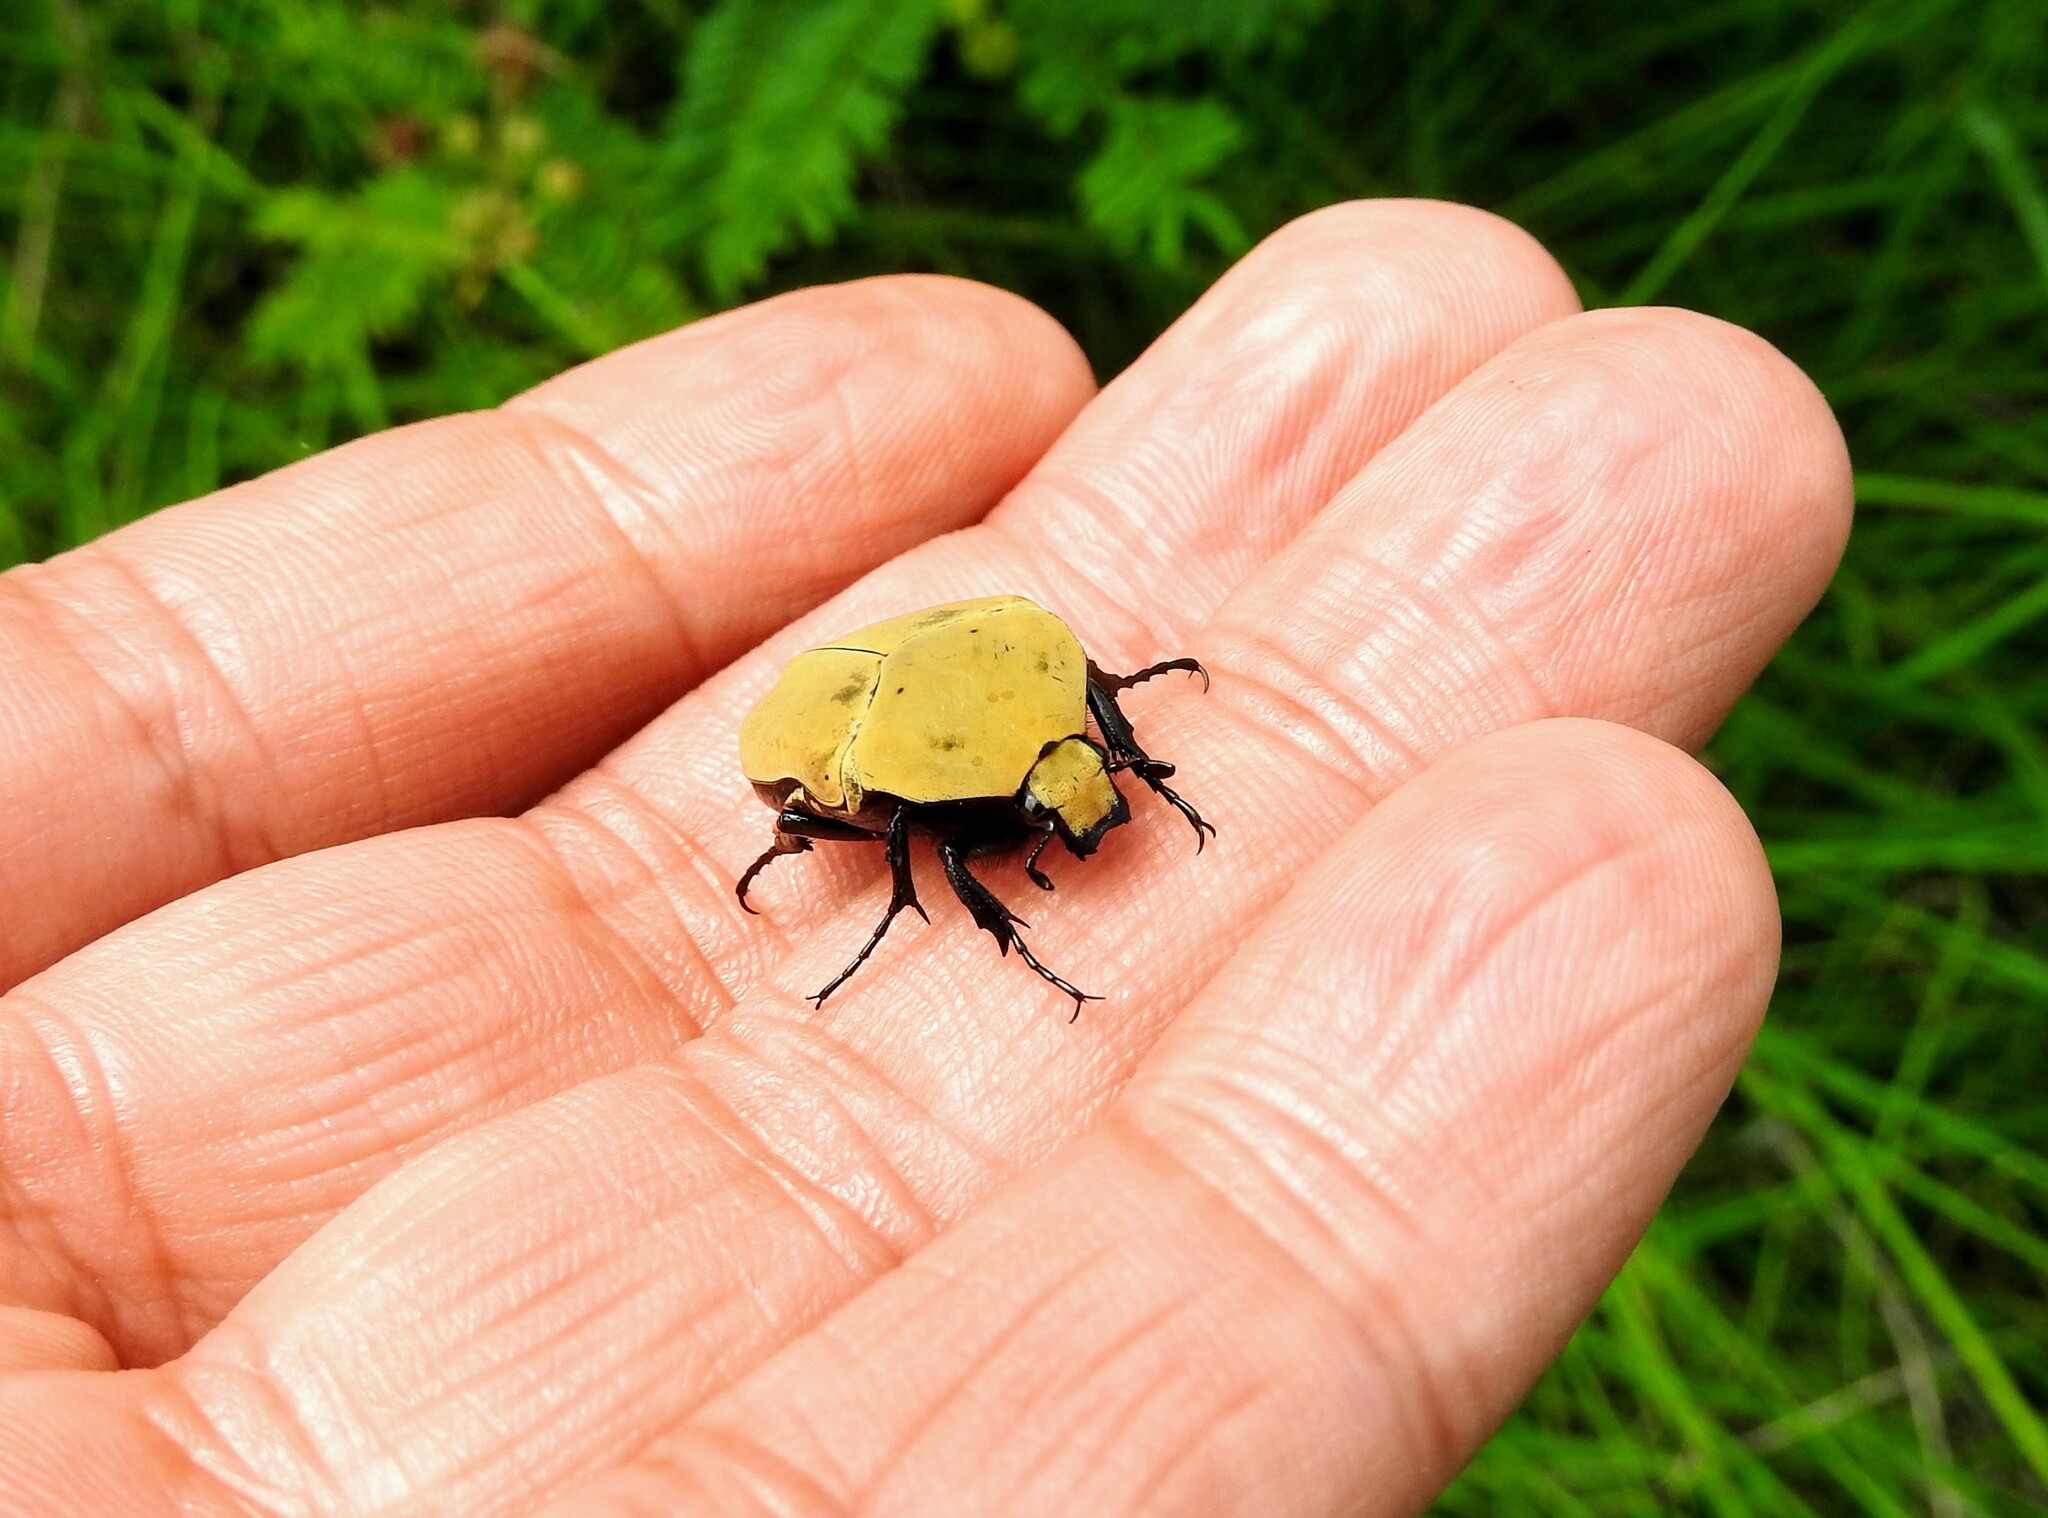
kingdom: Animalia
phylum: Arthropoda
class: Insecta
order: Coleoptera
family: Scarabaeidae
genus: Hologymnetis
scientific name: Hologymnetis cinerea
